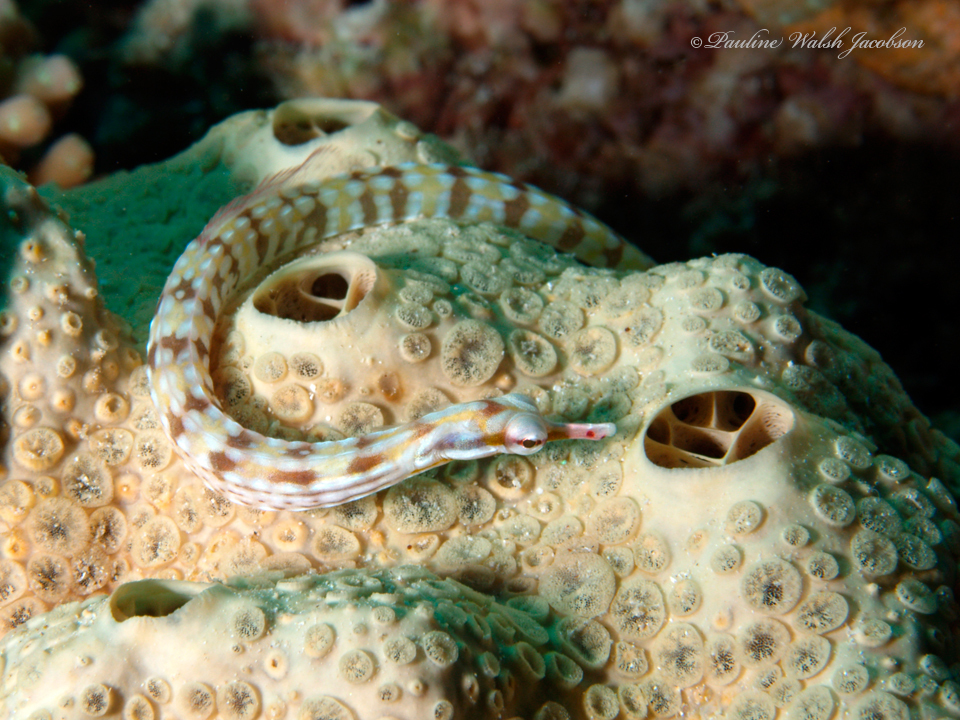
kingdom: Animalia
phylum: Chordata
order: Syngnathiformes
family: Syngnathidae
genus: Corythoichthys
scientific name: Corythoichthys flavofasciatus
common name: Banded pipefish
